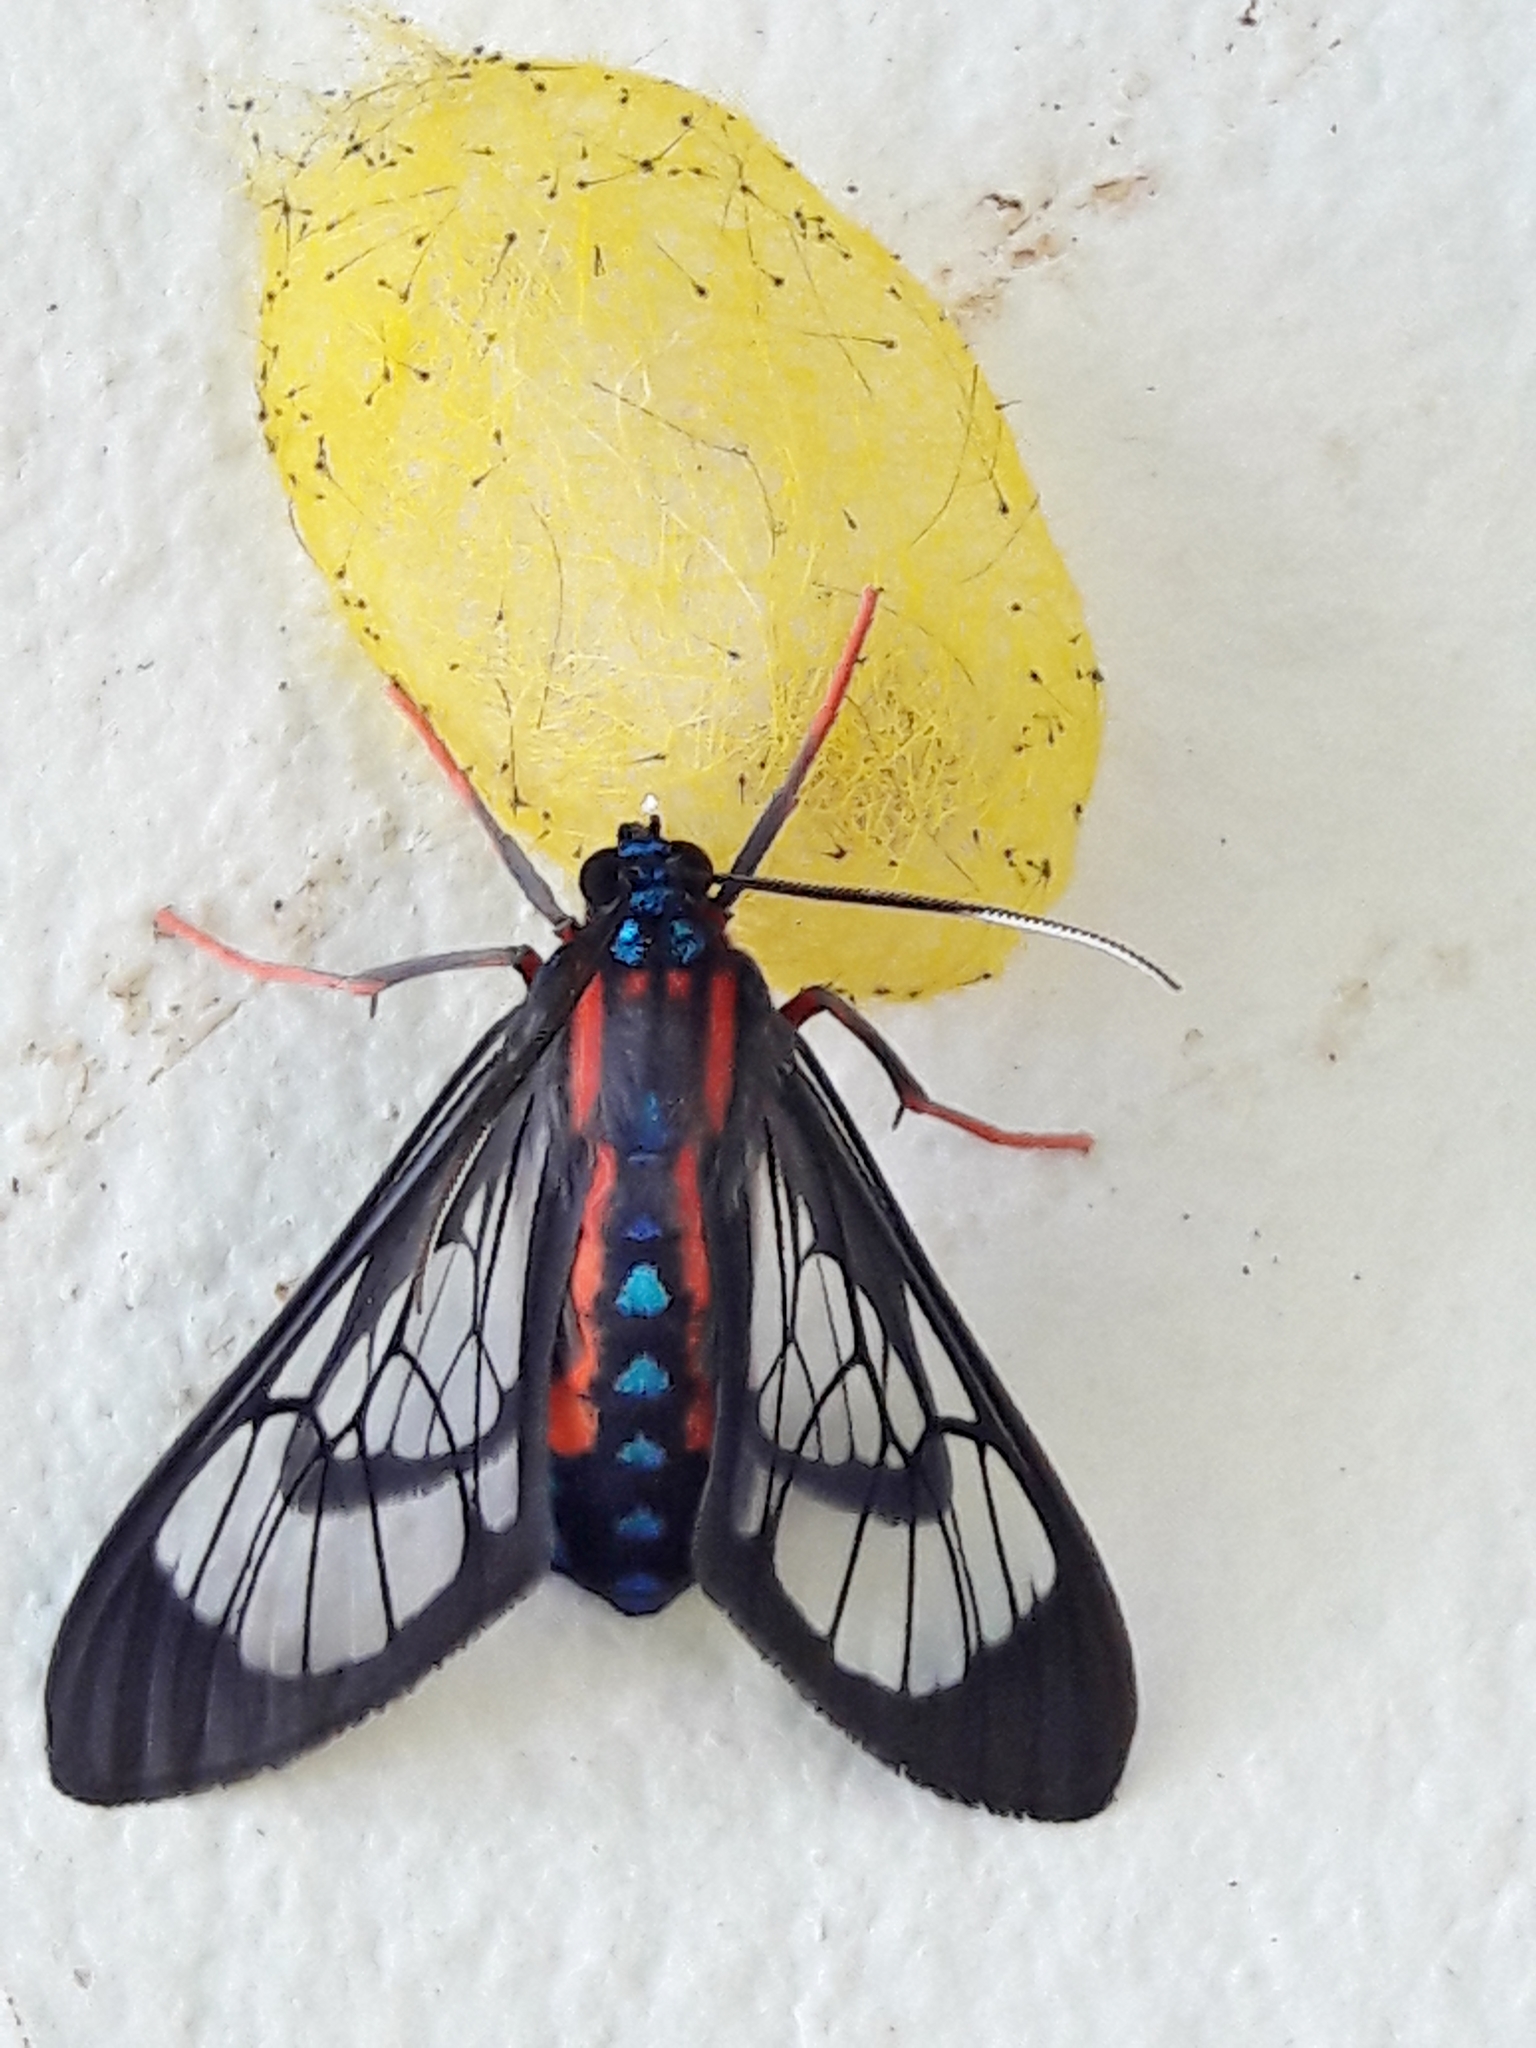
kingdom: Animalia
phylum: Arthropoda
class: Insecta
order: Lepidoptera
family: Erebidae
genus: Cosmosoma
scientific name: Cosmosoma auge
